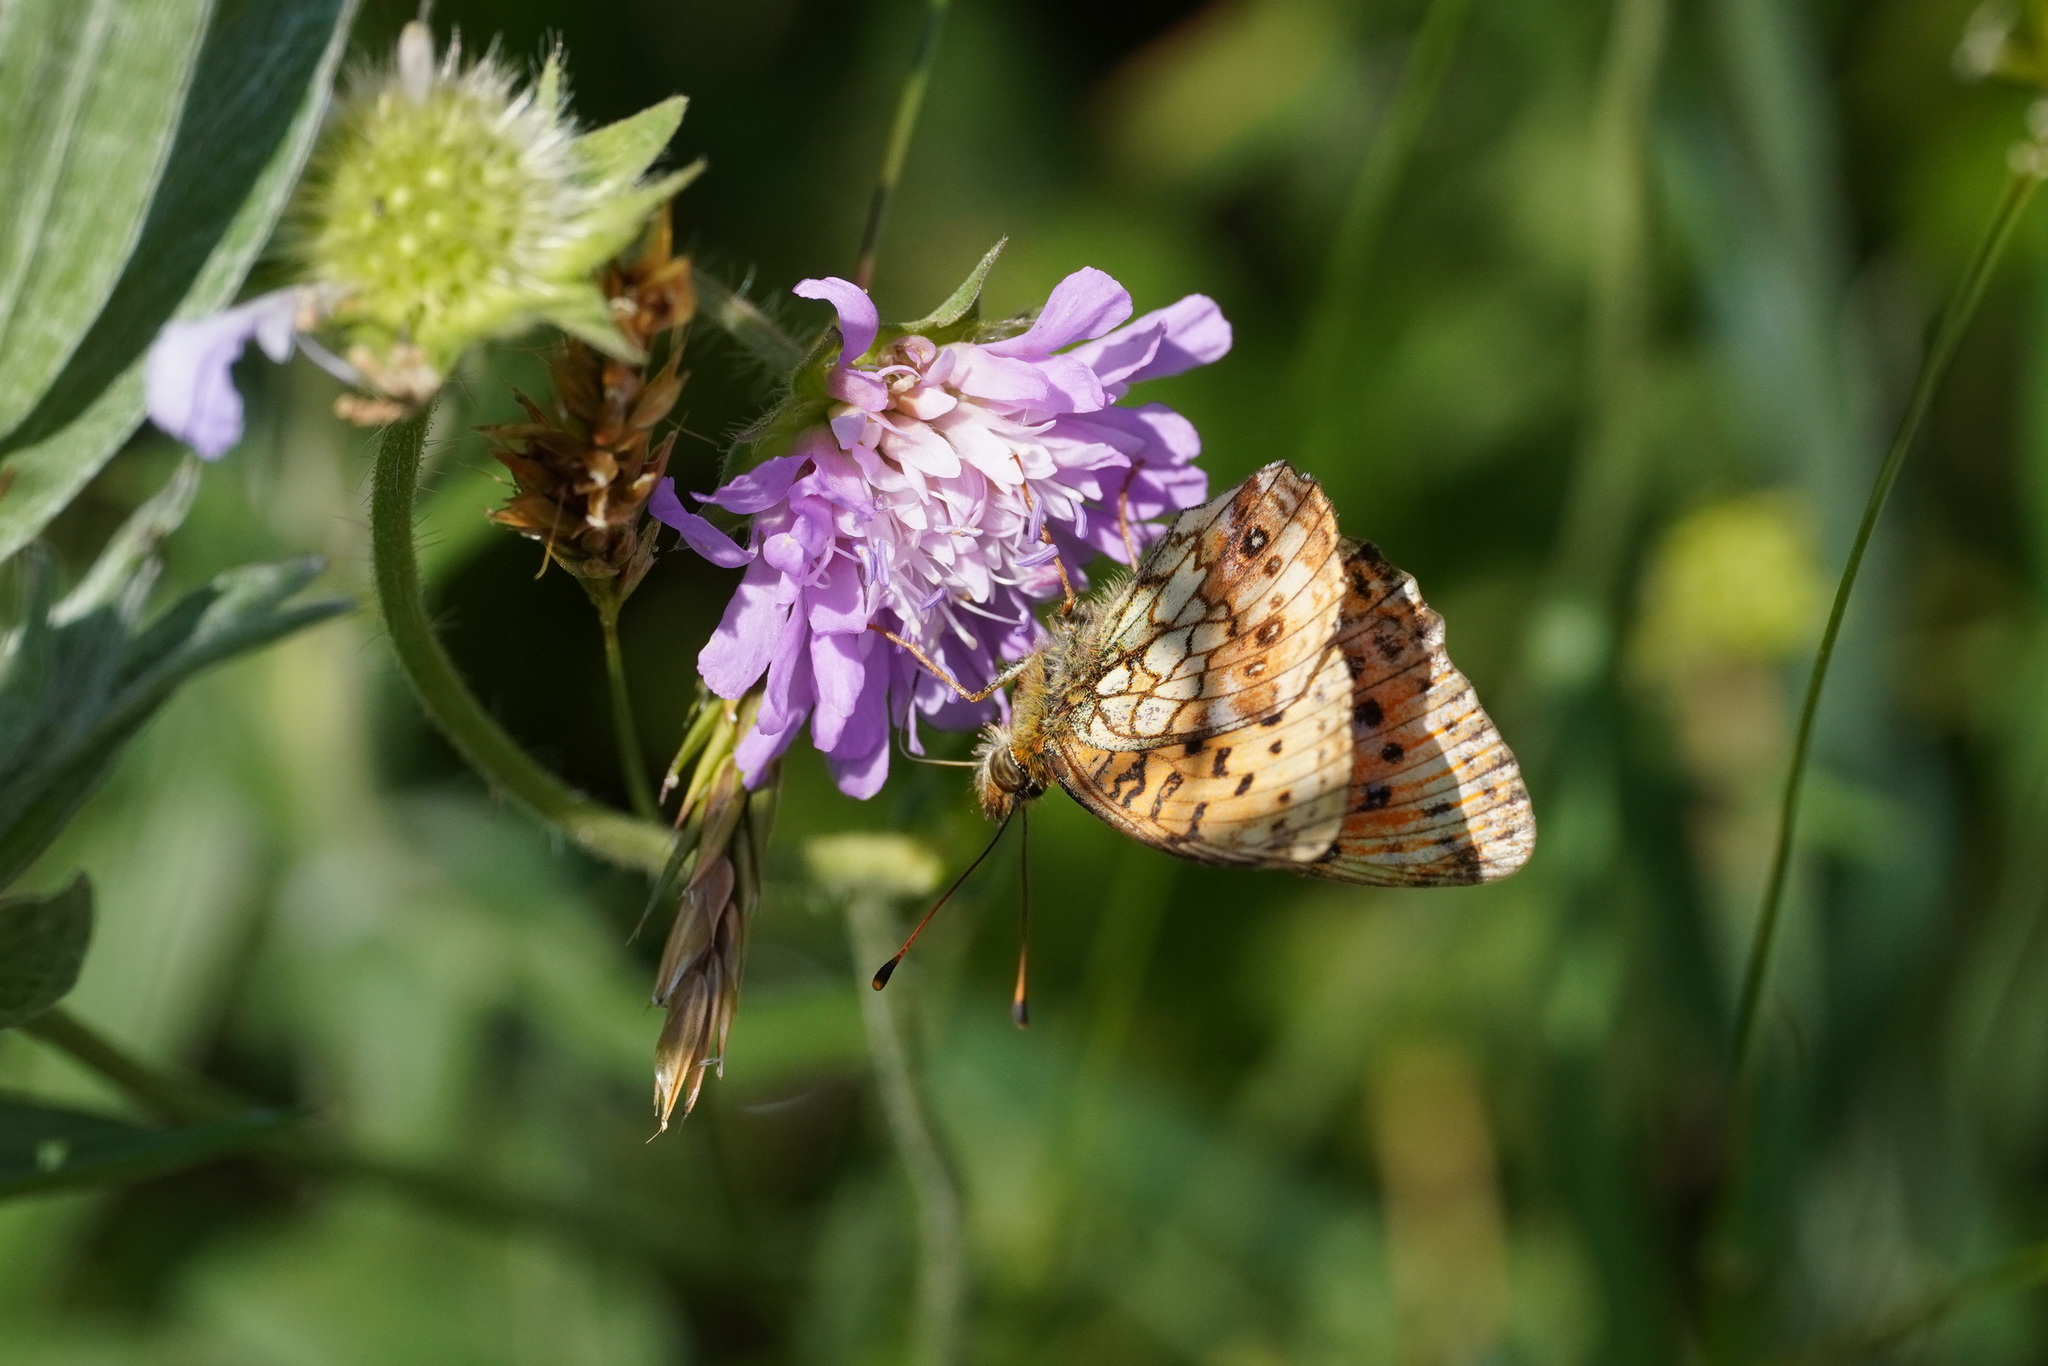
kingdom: Animalia
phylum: Arthropoda
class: Insecta
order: Lepidoptera
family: Nymphalidae
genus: Brenthis
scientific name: Brenthis ino
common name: Lesser marbled fritillary
